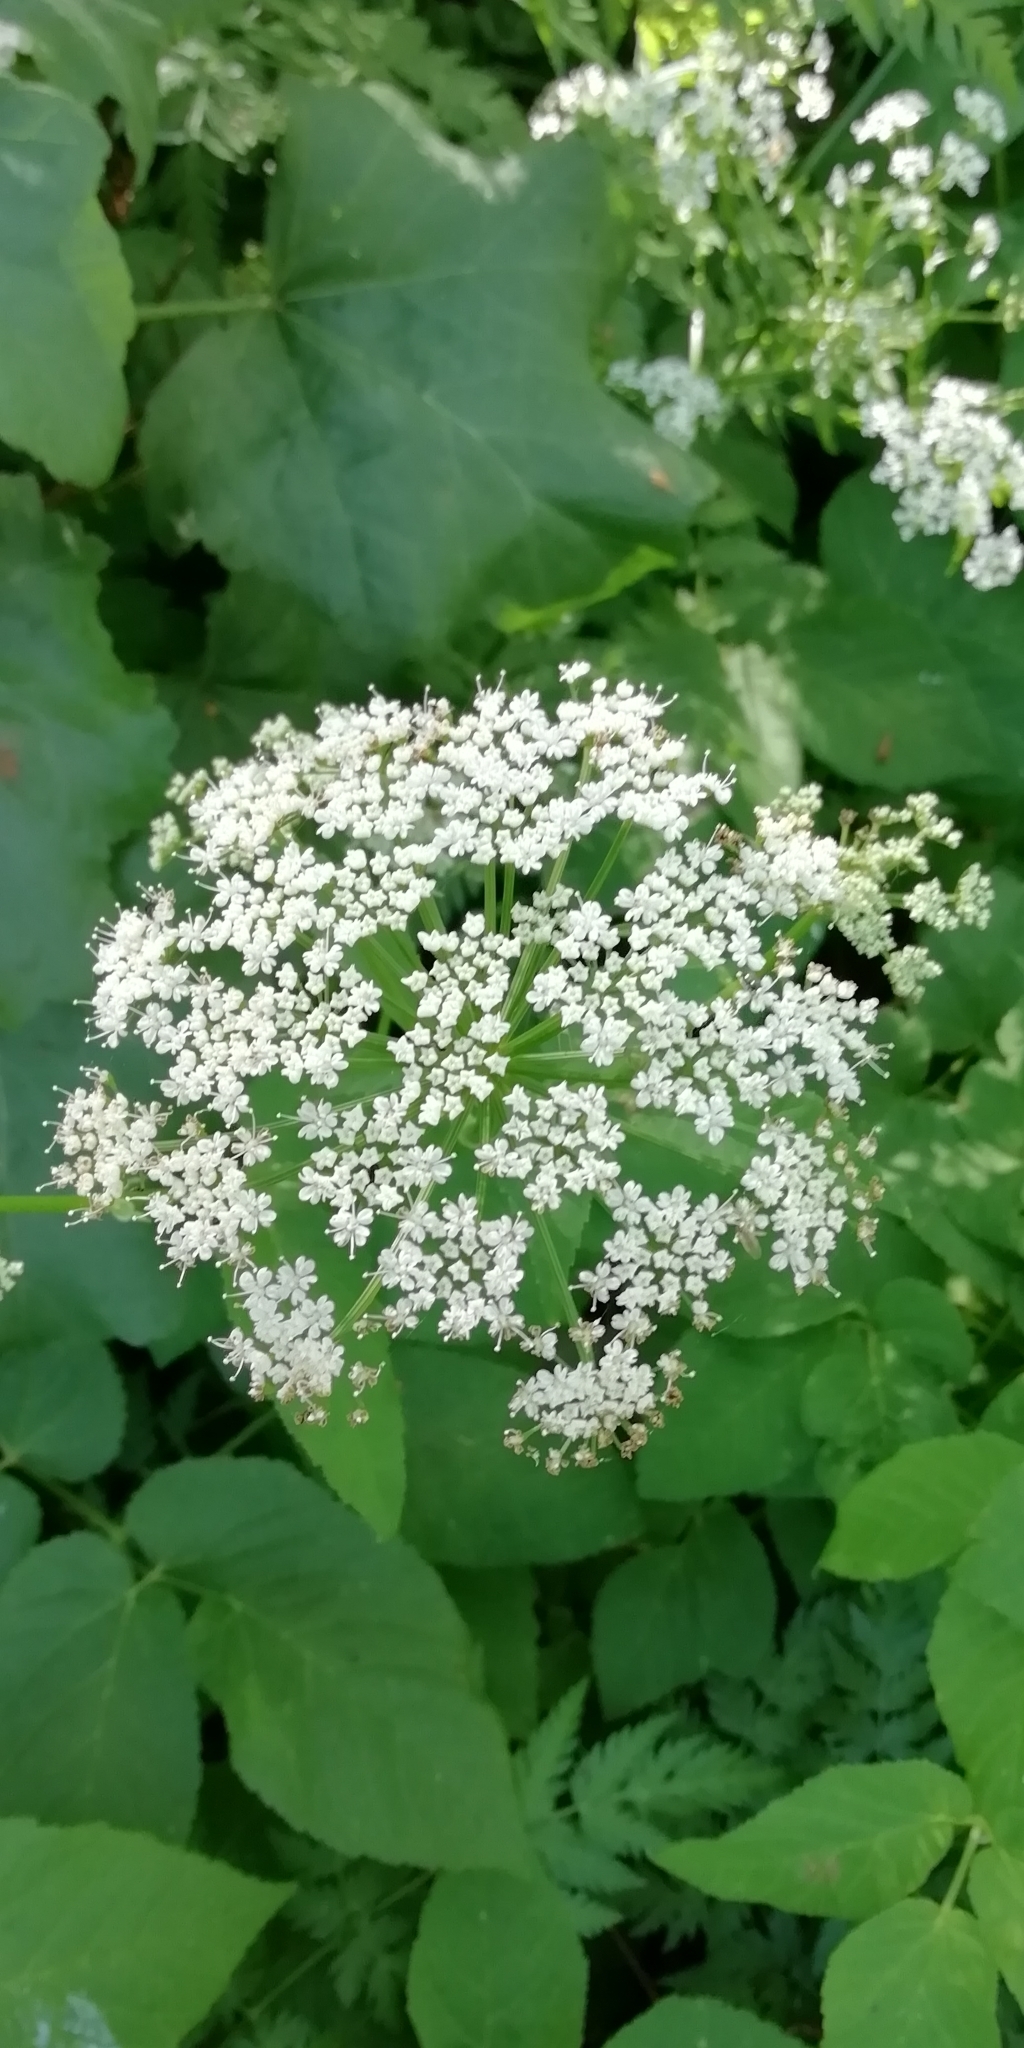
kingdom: Plantae
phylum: Tracheophyta
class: Magnoliopsida
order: Apiales
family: Apiaceae
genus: Aegopodium
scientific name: Aegopodium podagraria
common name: Ground-elder
